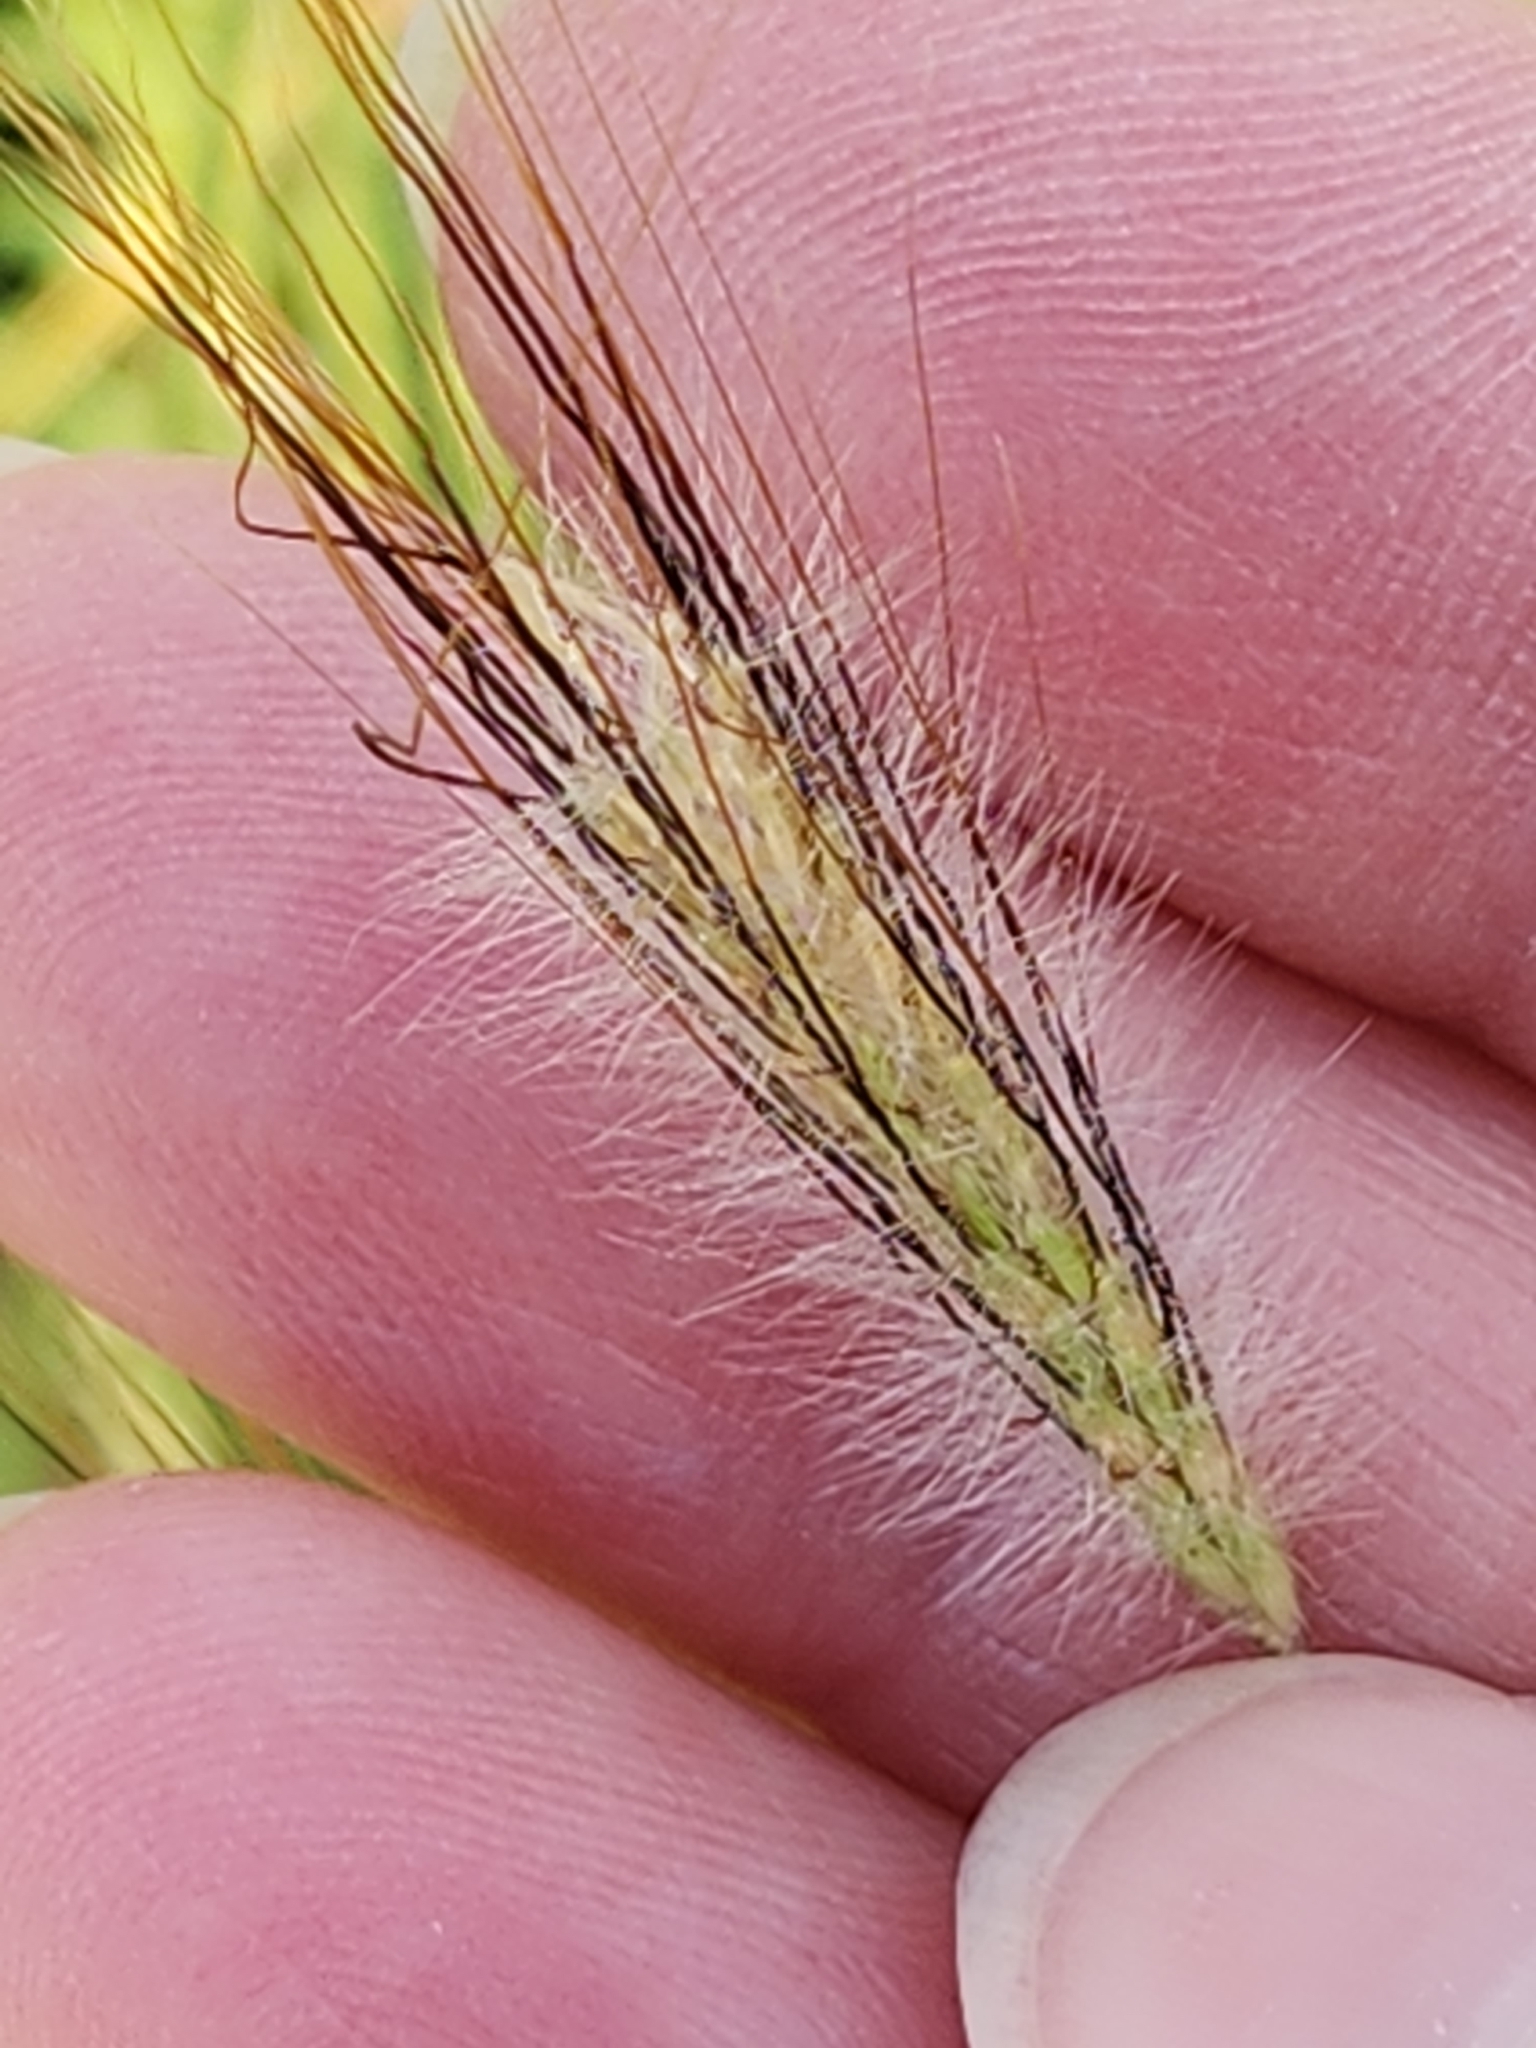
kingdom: Plantae
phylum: Tracheophyta
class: Liliopsida
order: Poales
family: Poaceae
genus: Dichanthium
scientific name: Dichanthium sericeum
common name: Silky bluestem
